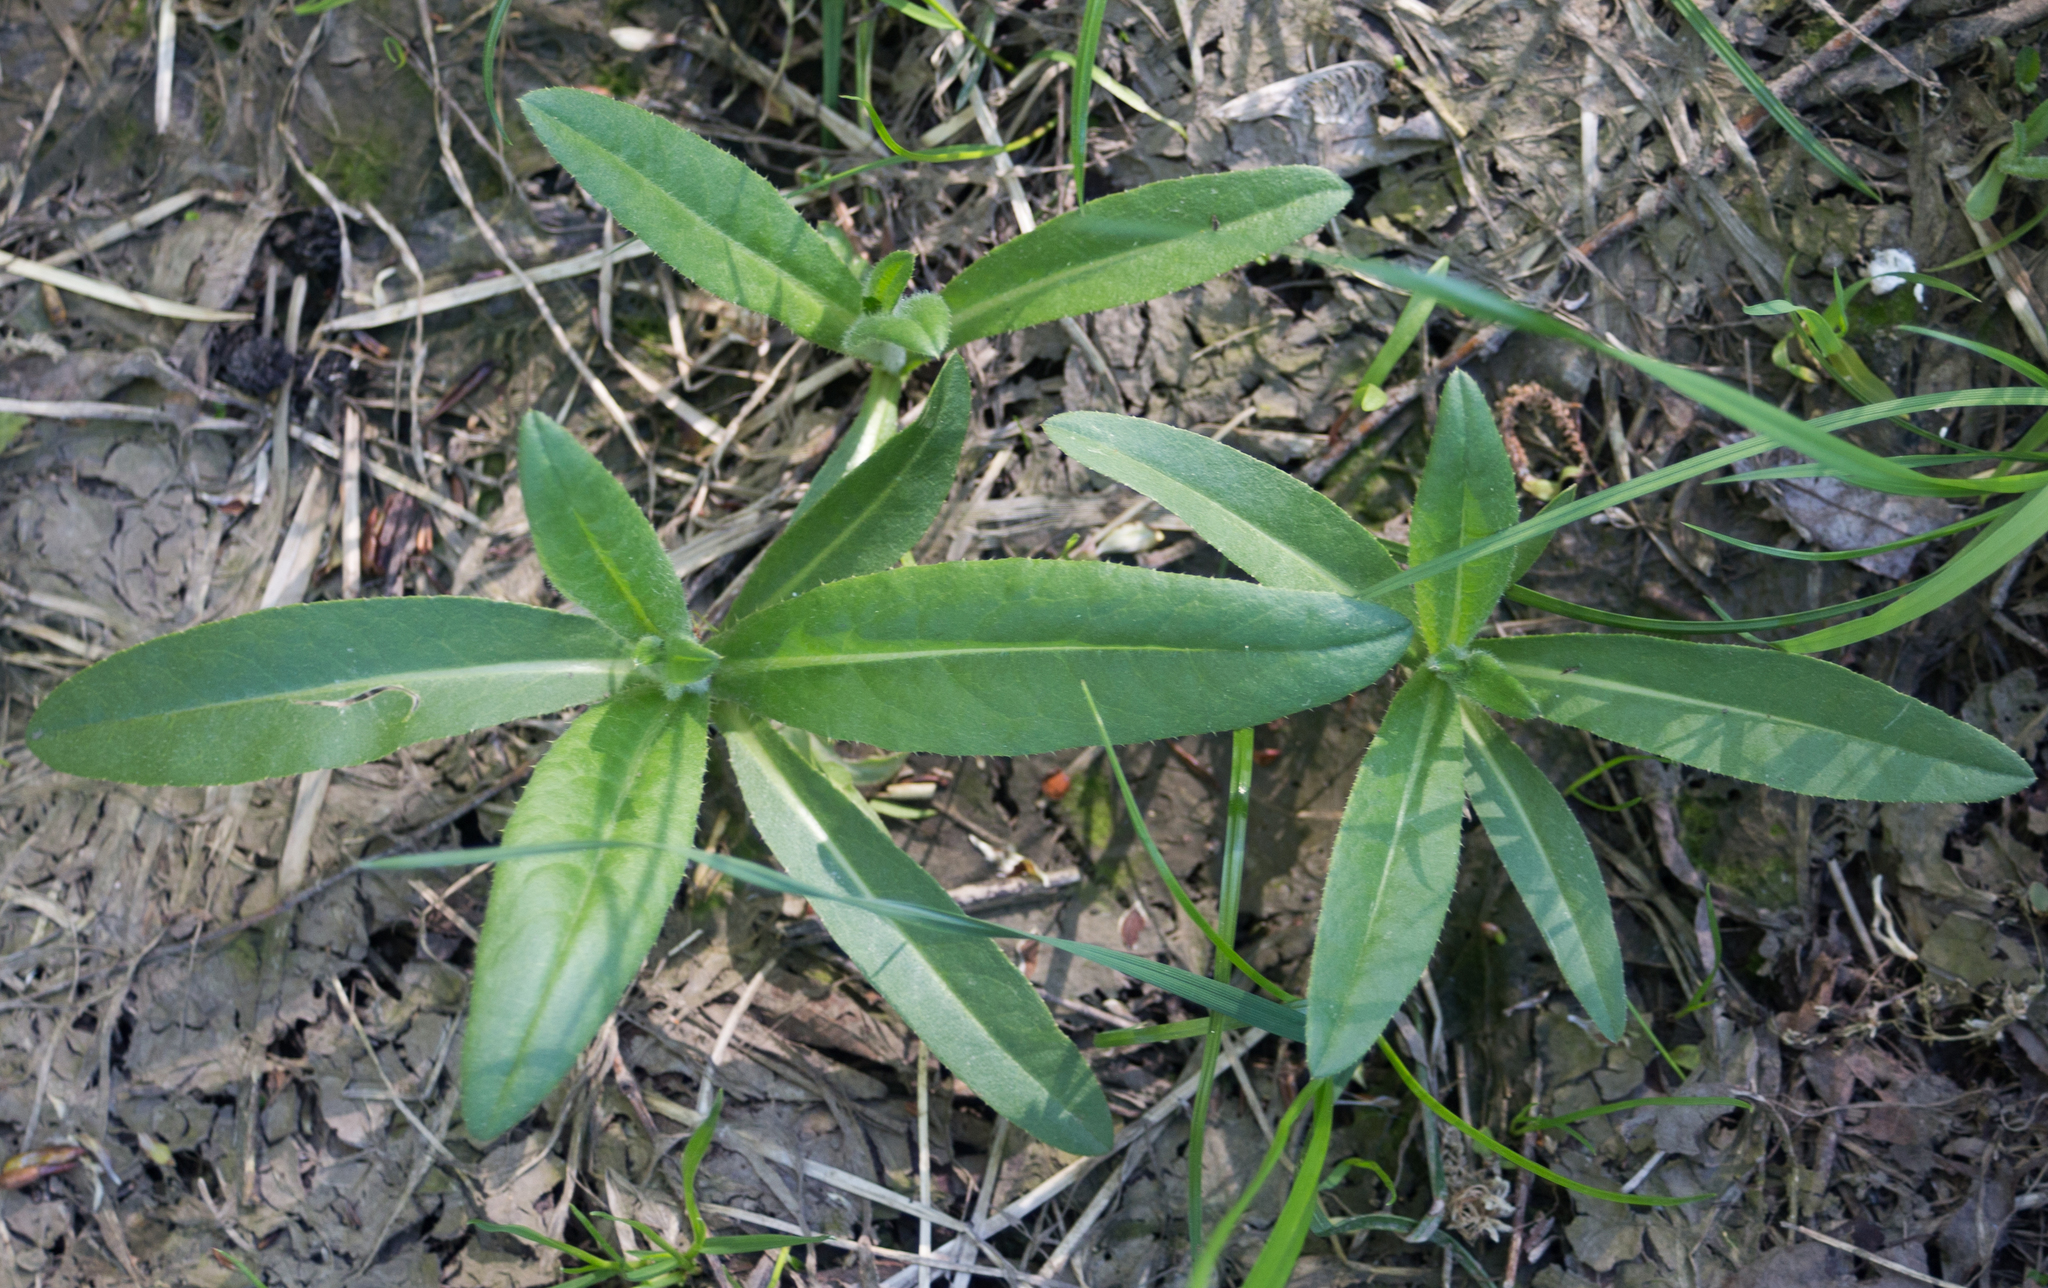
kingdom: Plantae
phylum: Tracheophyta
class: Magnoliopsida
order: Asterales
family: Asteraceae
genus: Cirsium
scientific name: Cirsium arvense
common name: Creeping thistle
